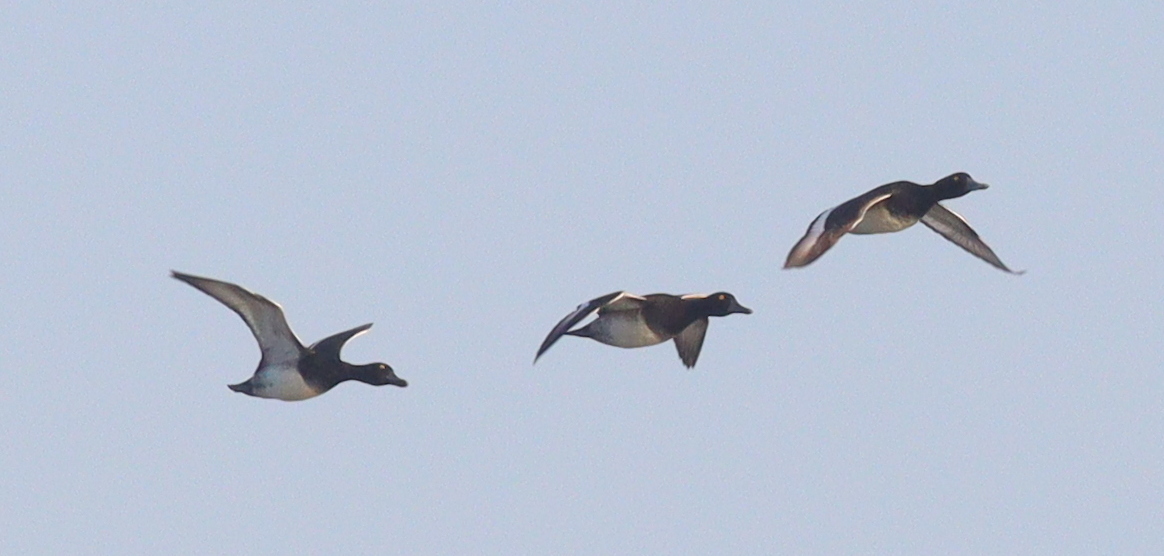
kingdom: Animalia
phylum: Chordata
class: Aves
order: Anseriformes
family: Anatidae
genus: Aythya
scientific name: Aythya fuligula
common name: Tufted duck
